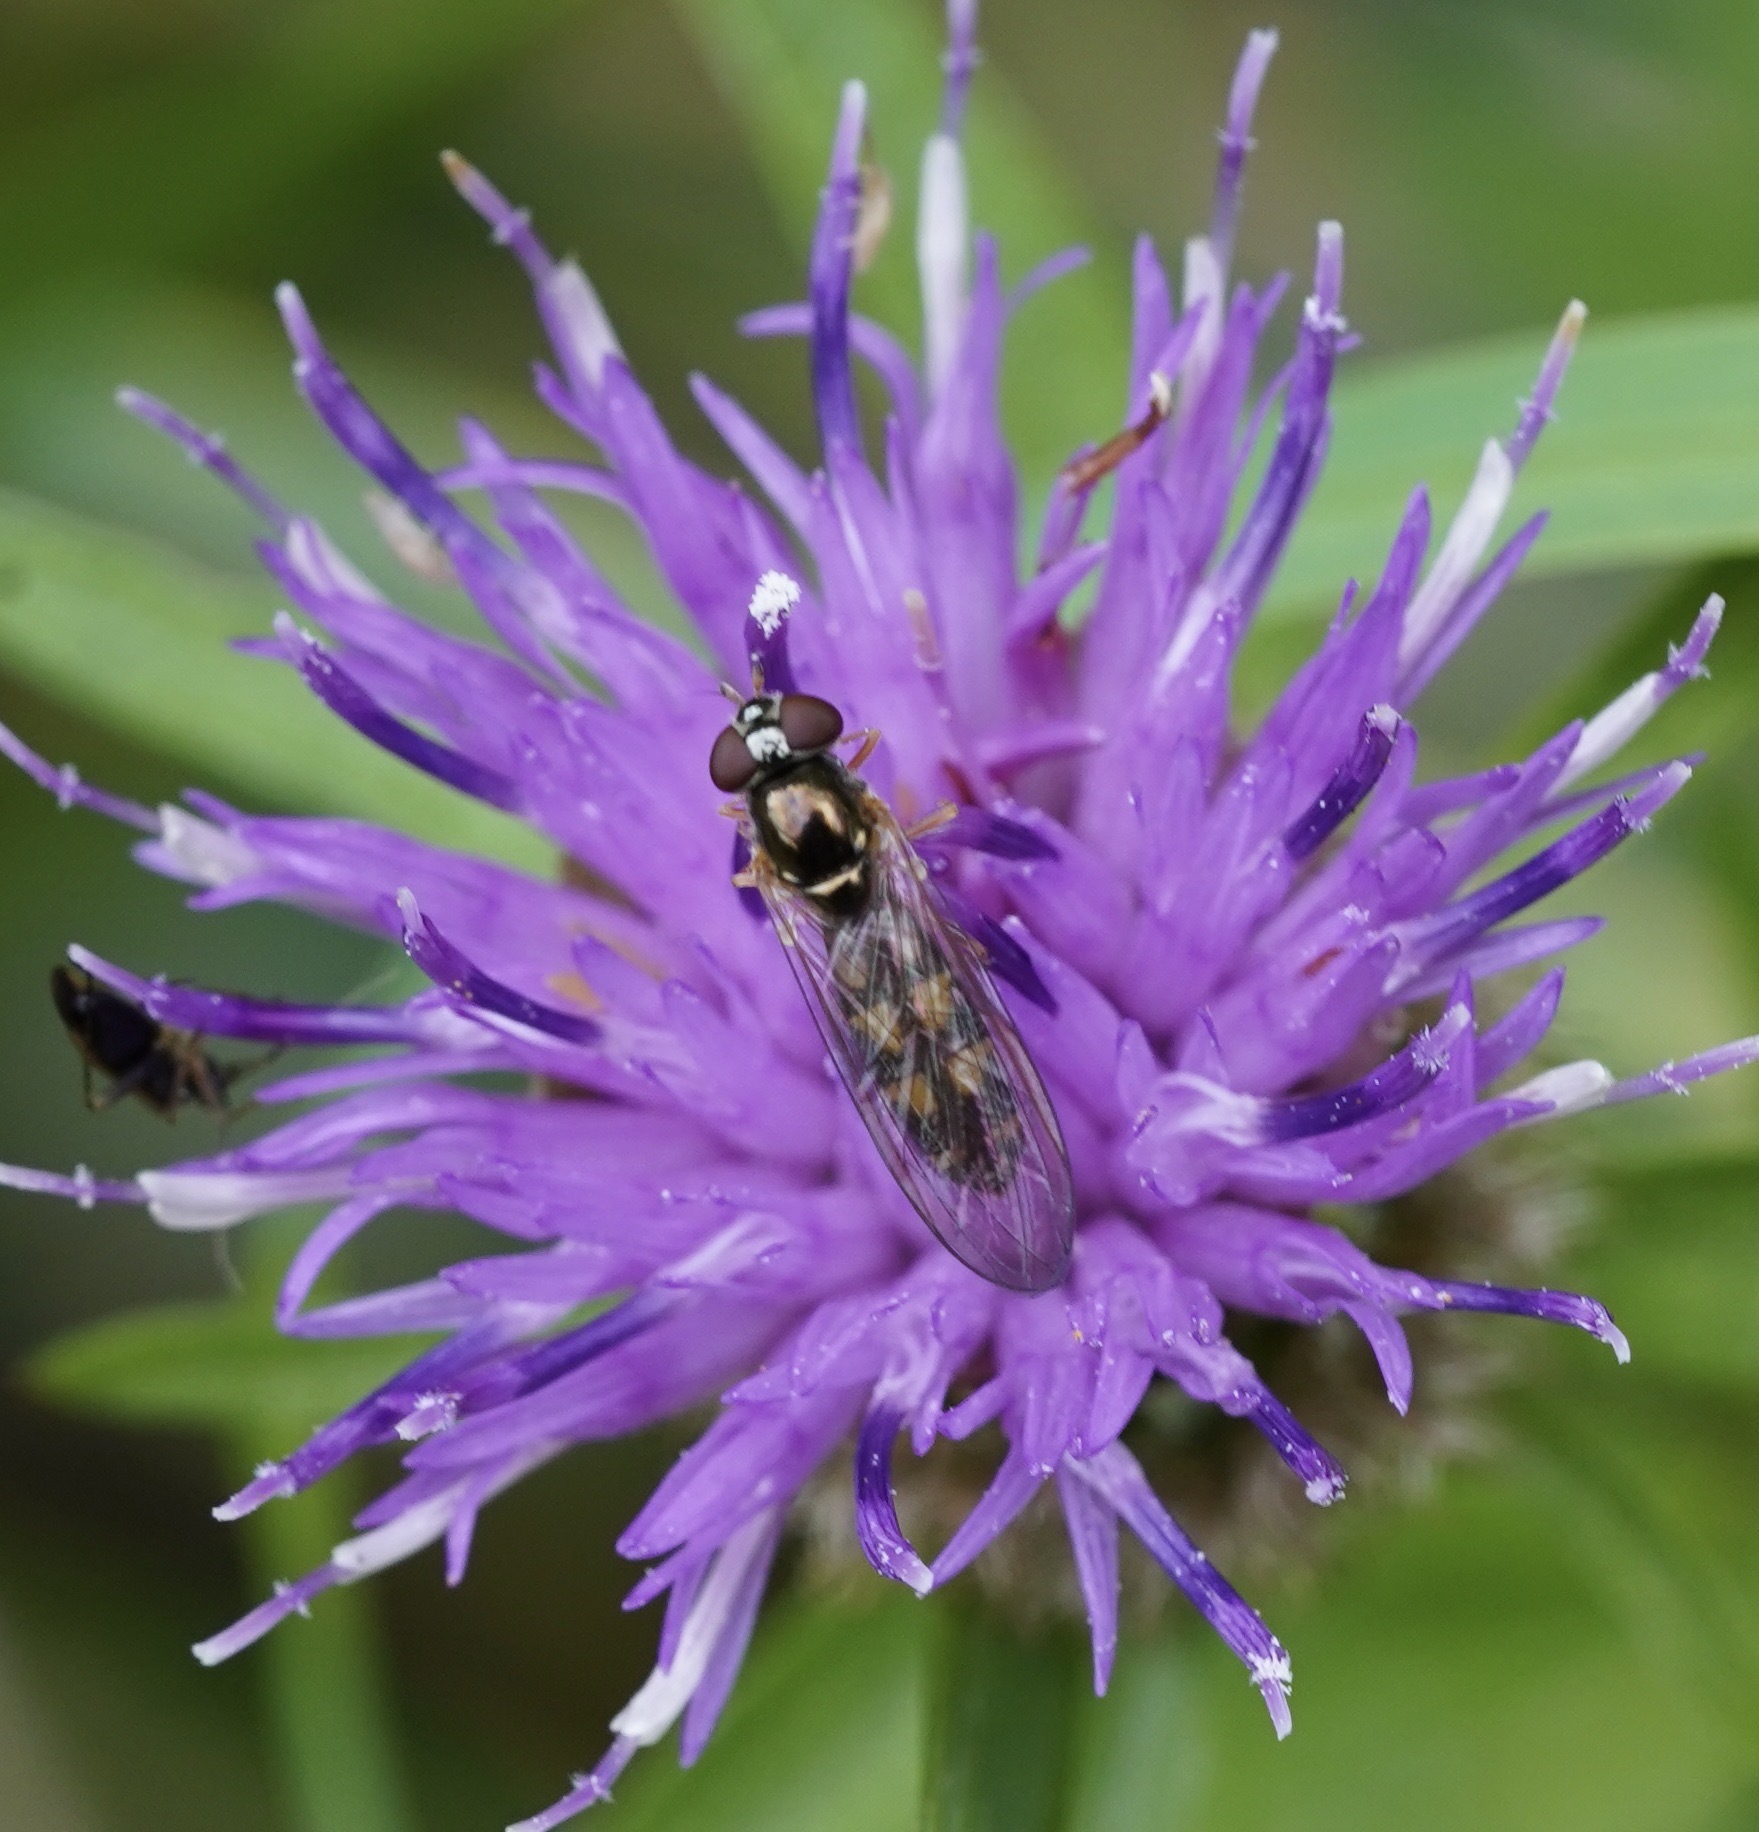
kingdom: Animalia
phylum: Arthropoda
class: Insecta
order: Diptera
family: Syrphidae
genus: Melanostoma
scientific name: Melanostoma scalare
